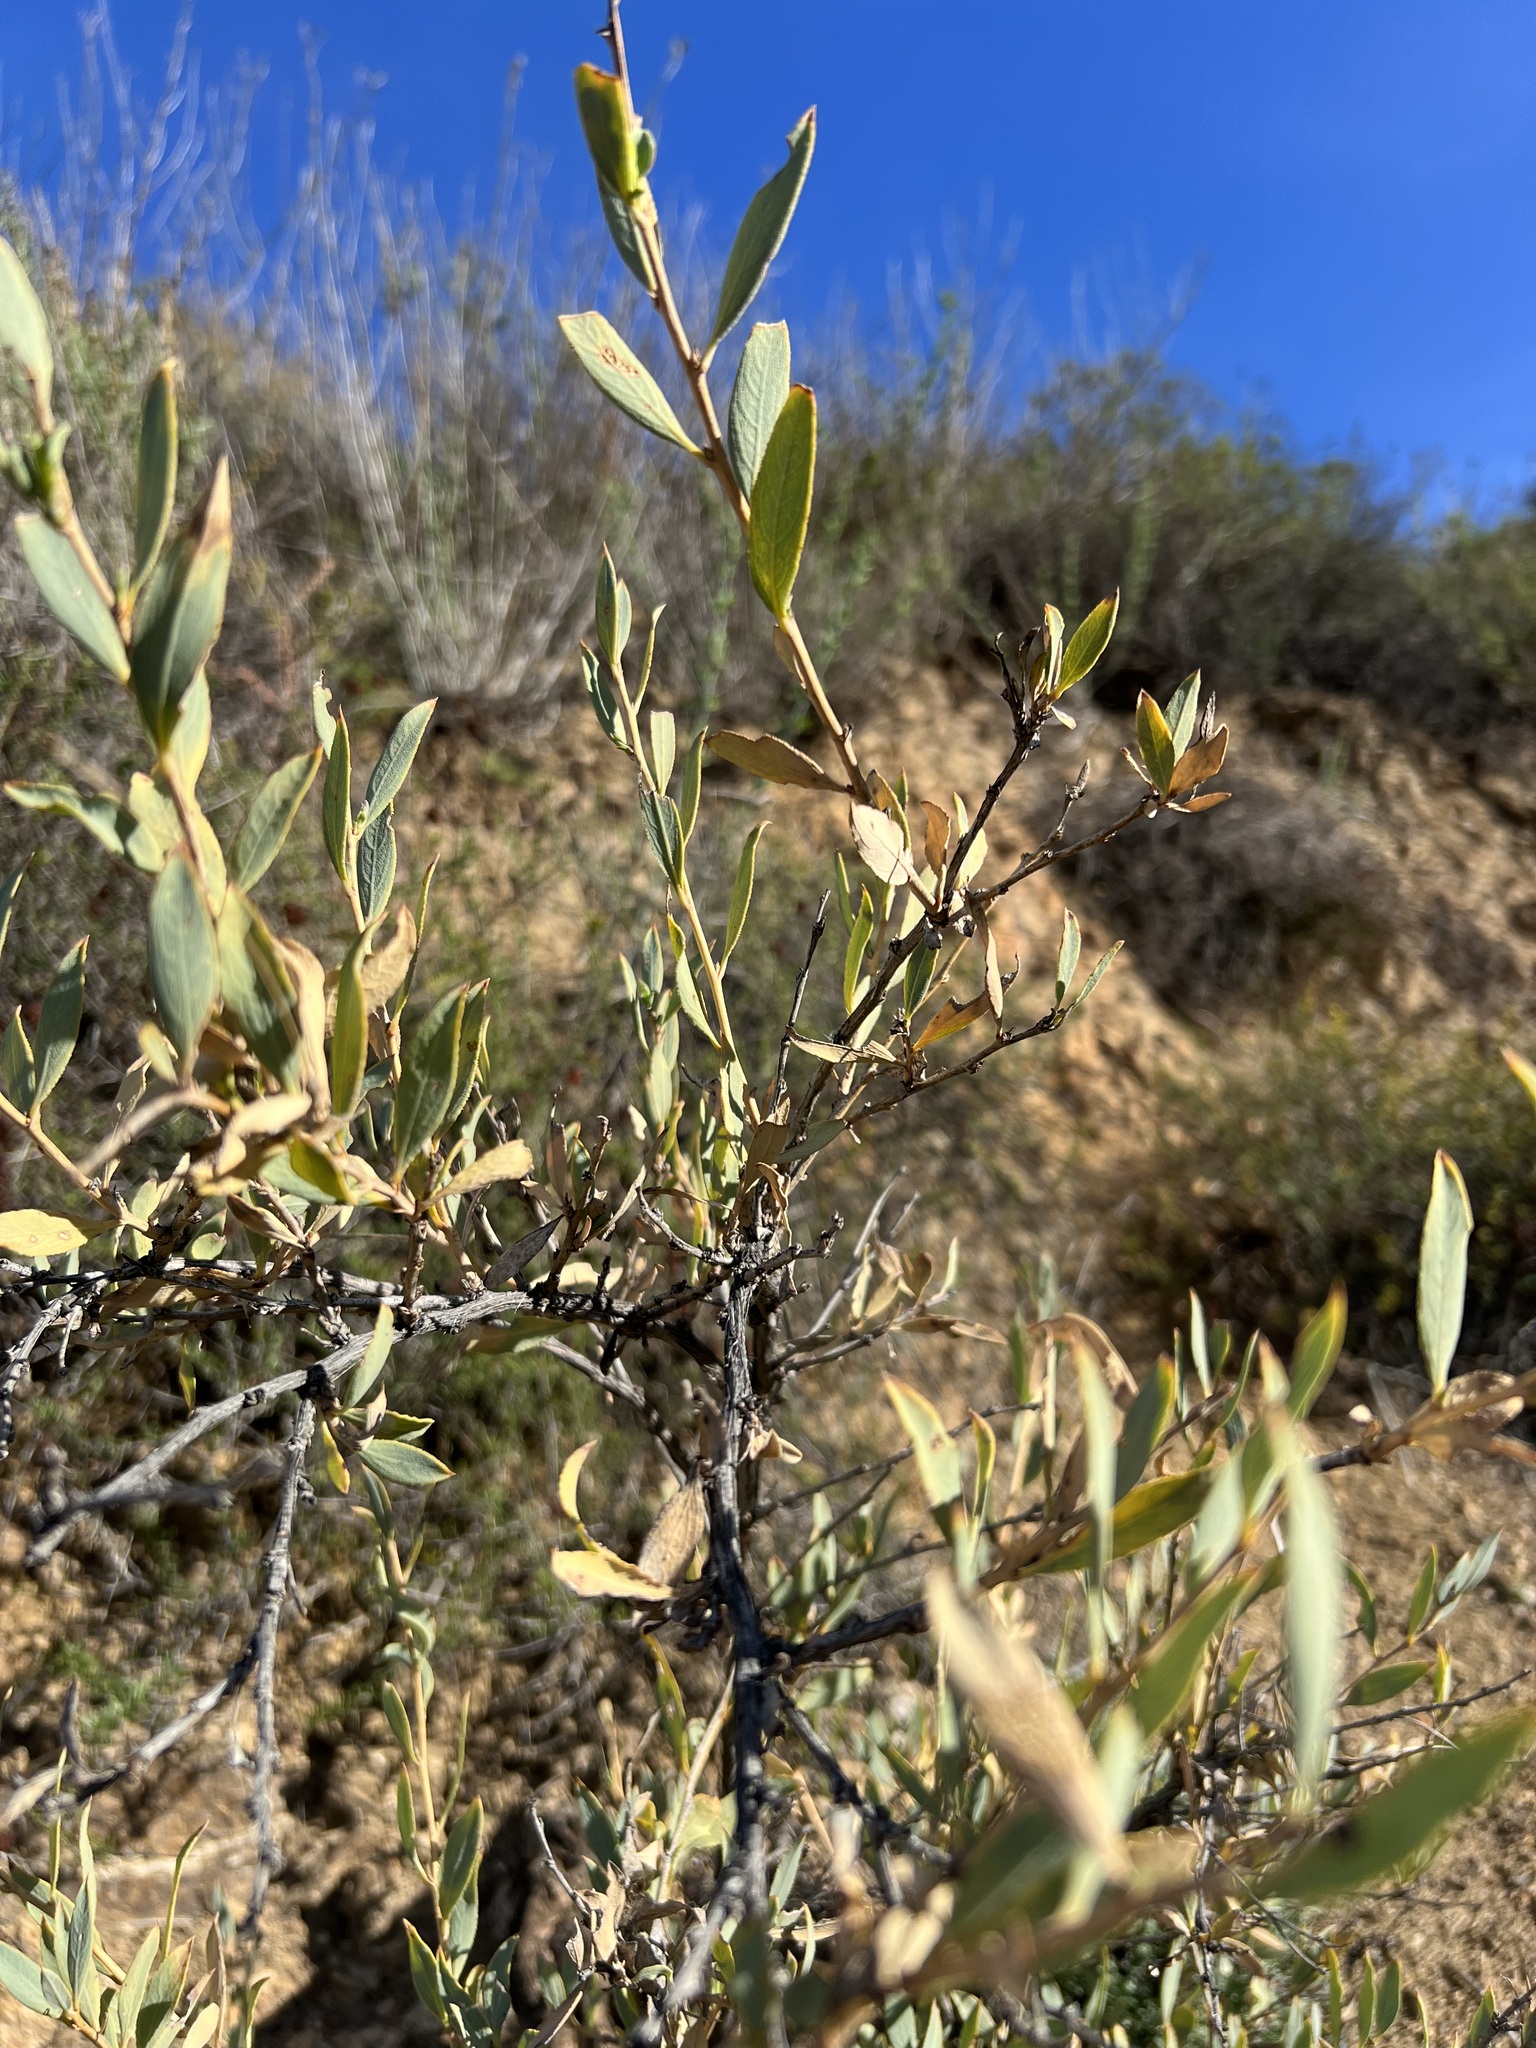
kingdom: Plantae
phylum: Tracheophyta
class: Magnoliopsida
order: Ranunculales
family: Papaveraceae
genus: Dendromecon
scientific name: Dendromecon rigida
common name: Tree poppy
